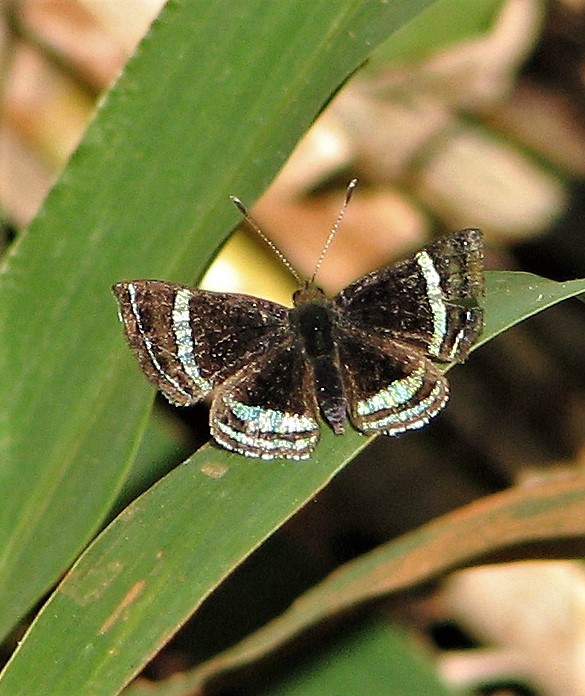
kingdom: Animalia
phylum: Arthropoda
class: Insecta
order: Lepidoptera
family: Riodinidae
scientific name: Riodinidae
